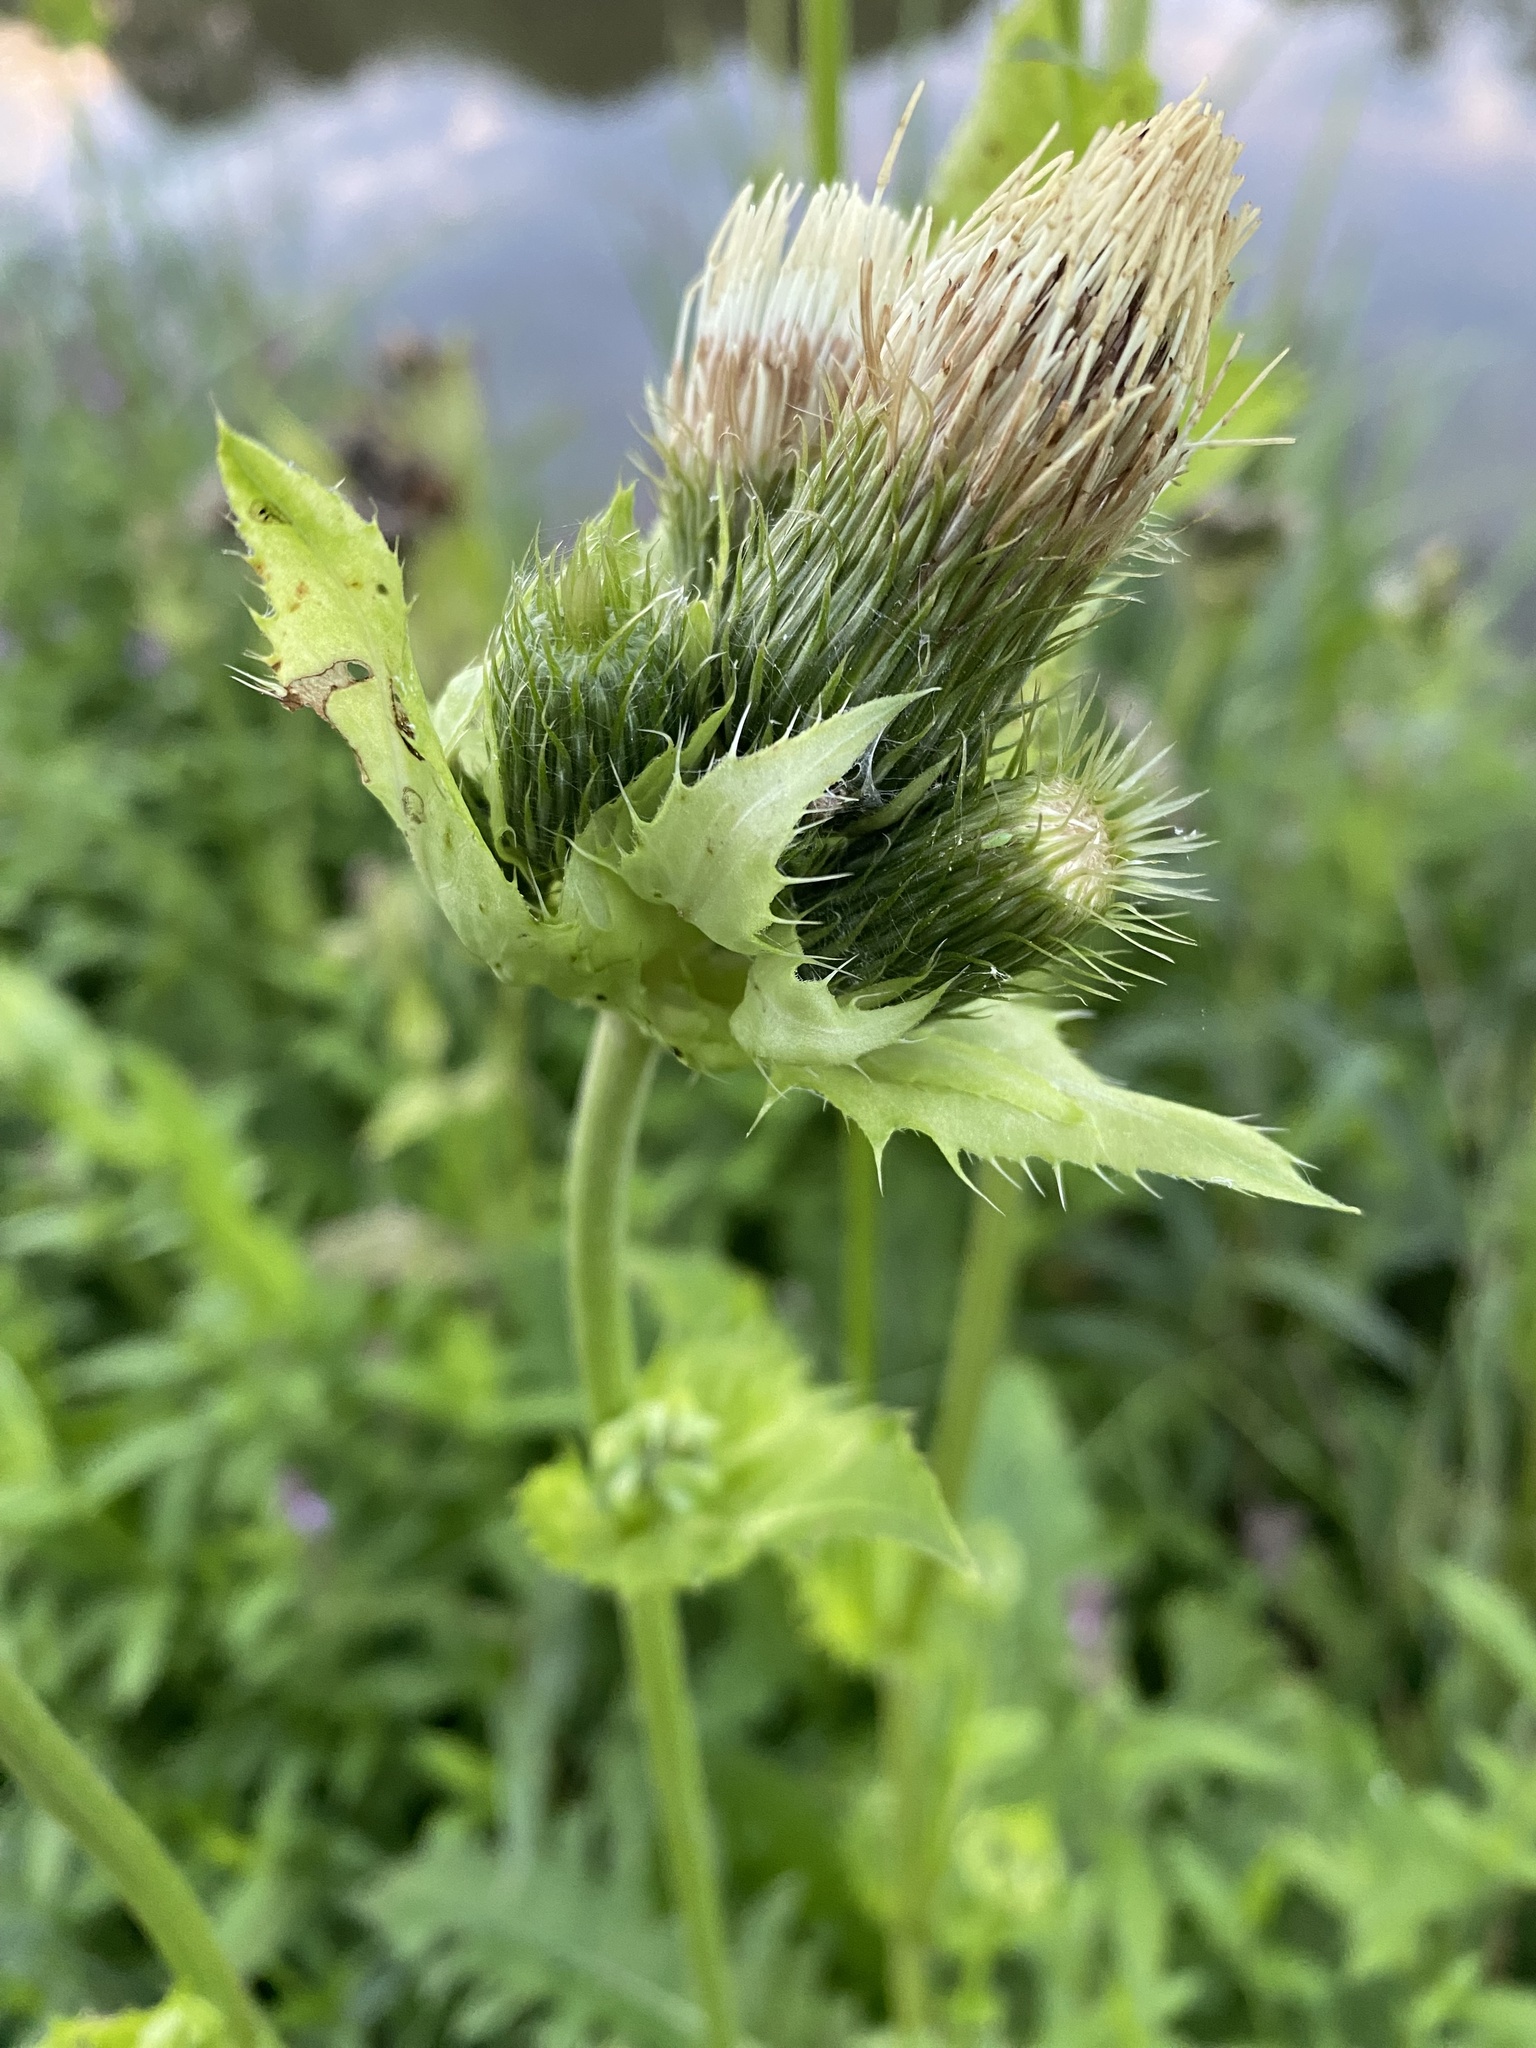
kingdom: Plantae
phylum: Tracheophyta
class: Magnoliopsida
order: Asterales
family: Asteraceae
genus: Cirsium
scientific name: Cirsium oleraceum
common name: Cabbage thistle
